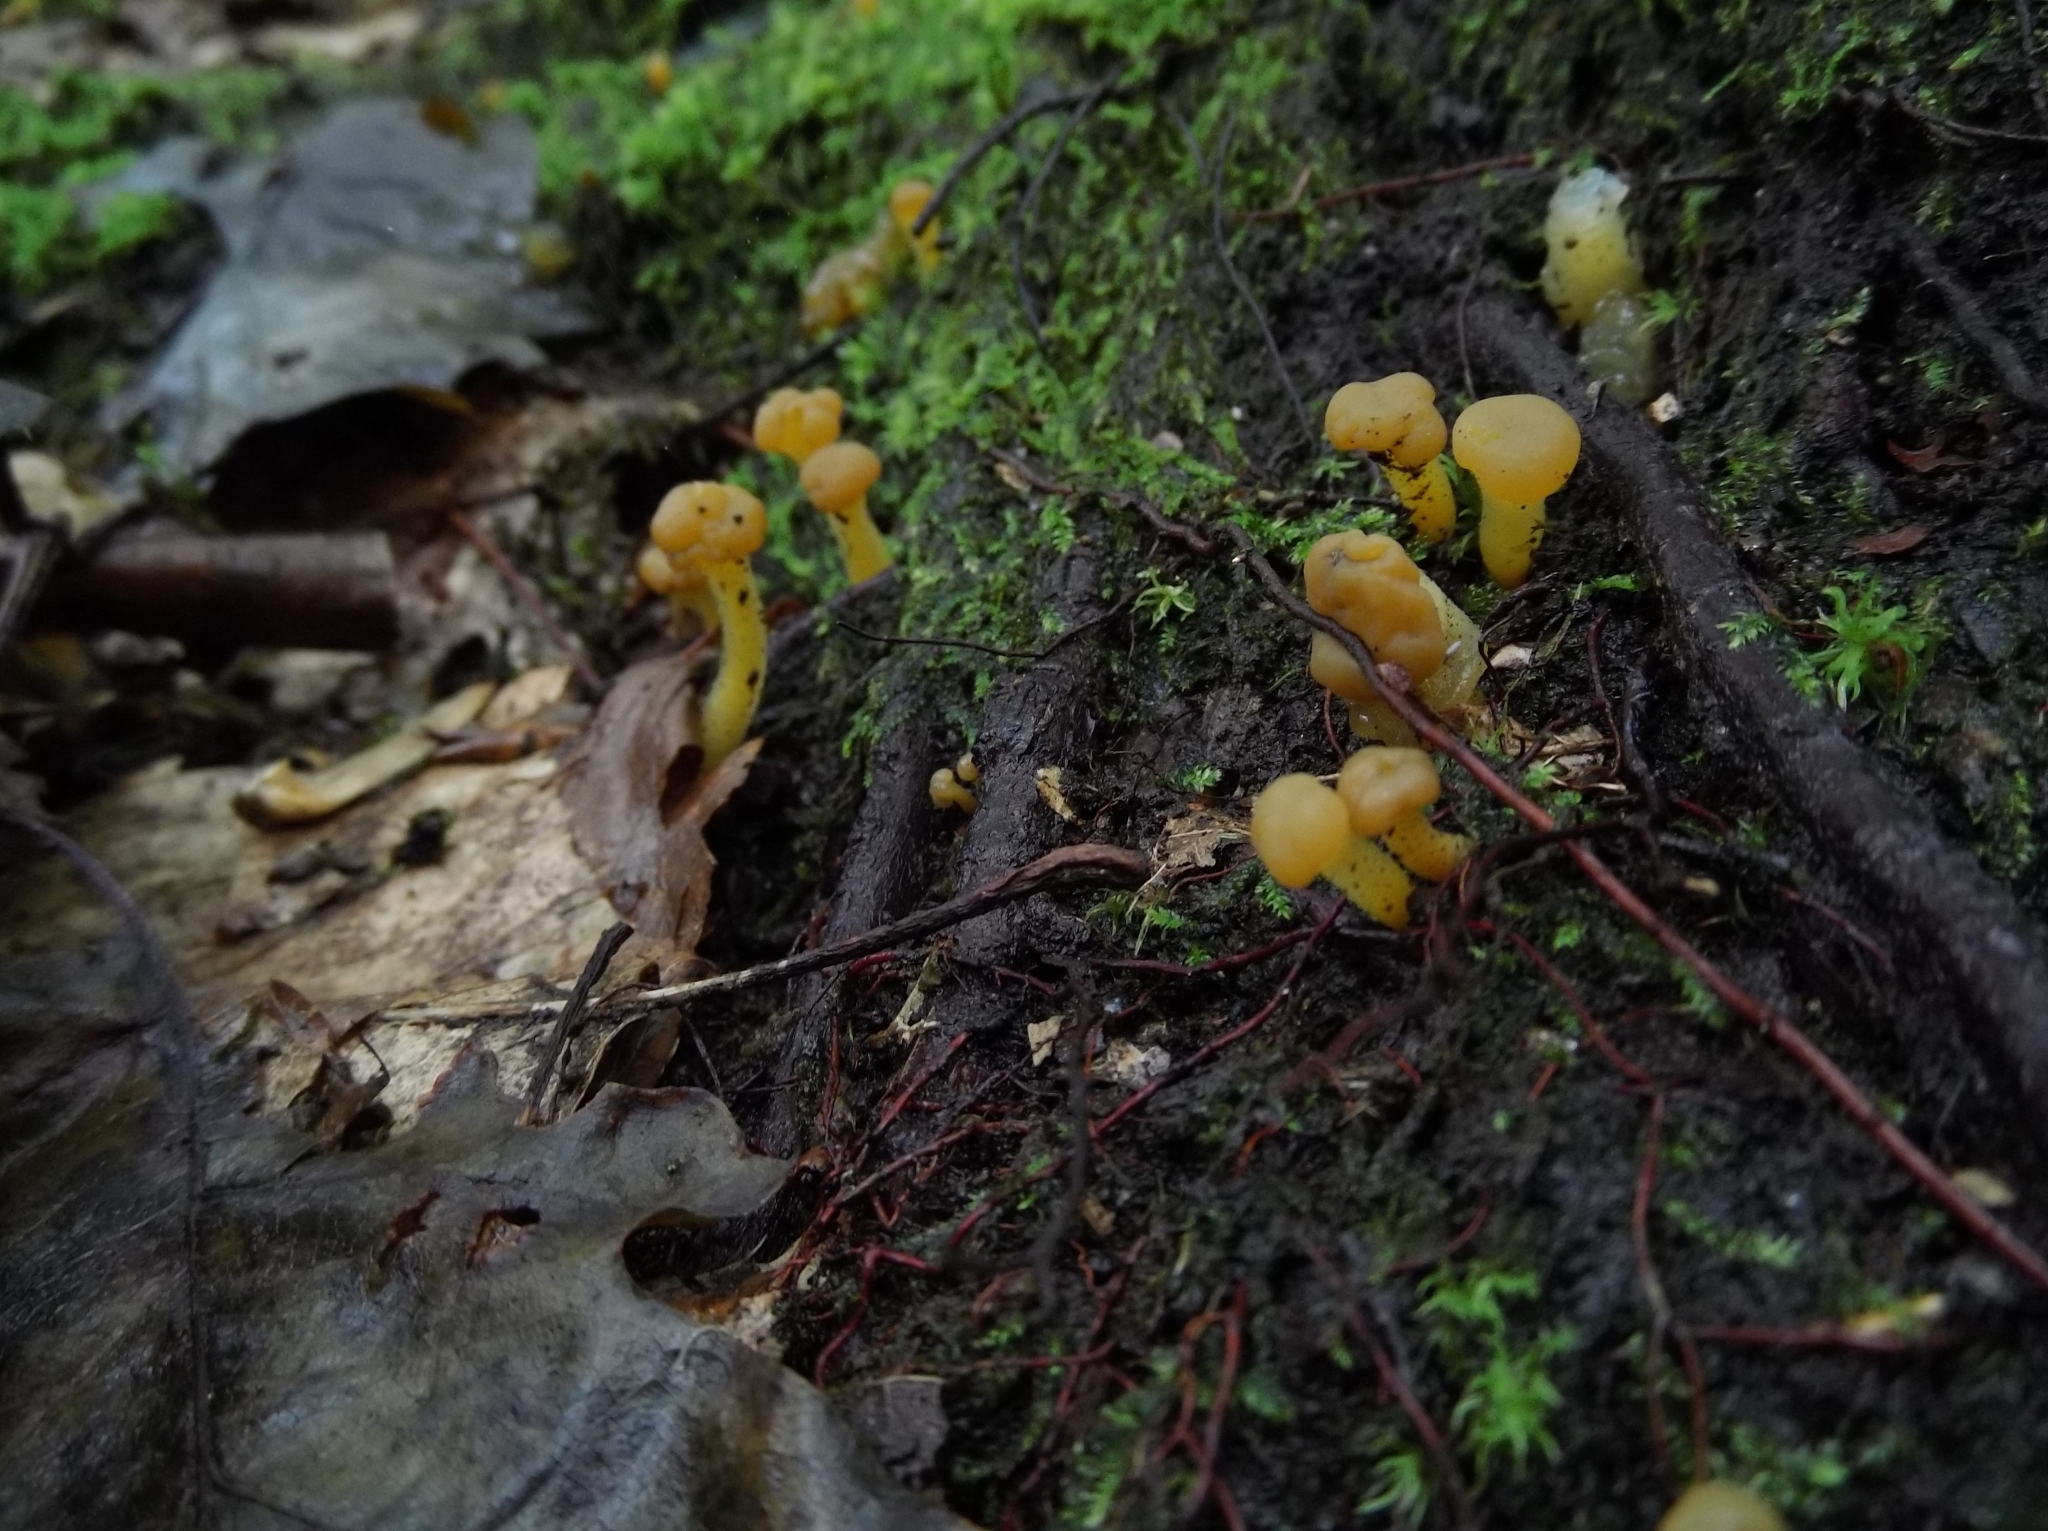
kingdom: Fungi
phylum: Ascomycota
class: Leotiomycetes
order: Leotiales
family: Leotiaceae
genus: Leotia
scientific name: Leotia lubrica
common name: Jellybaby
